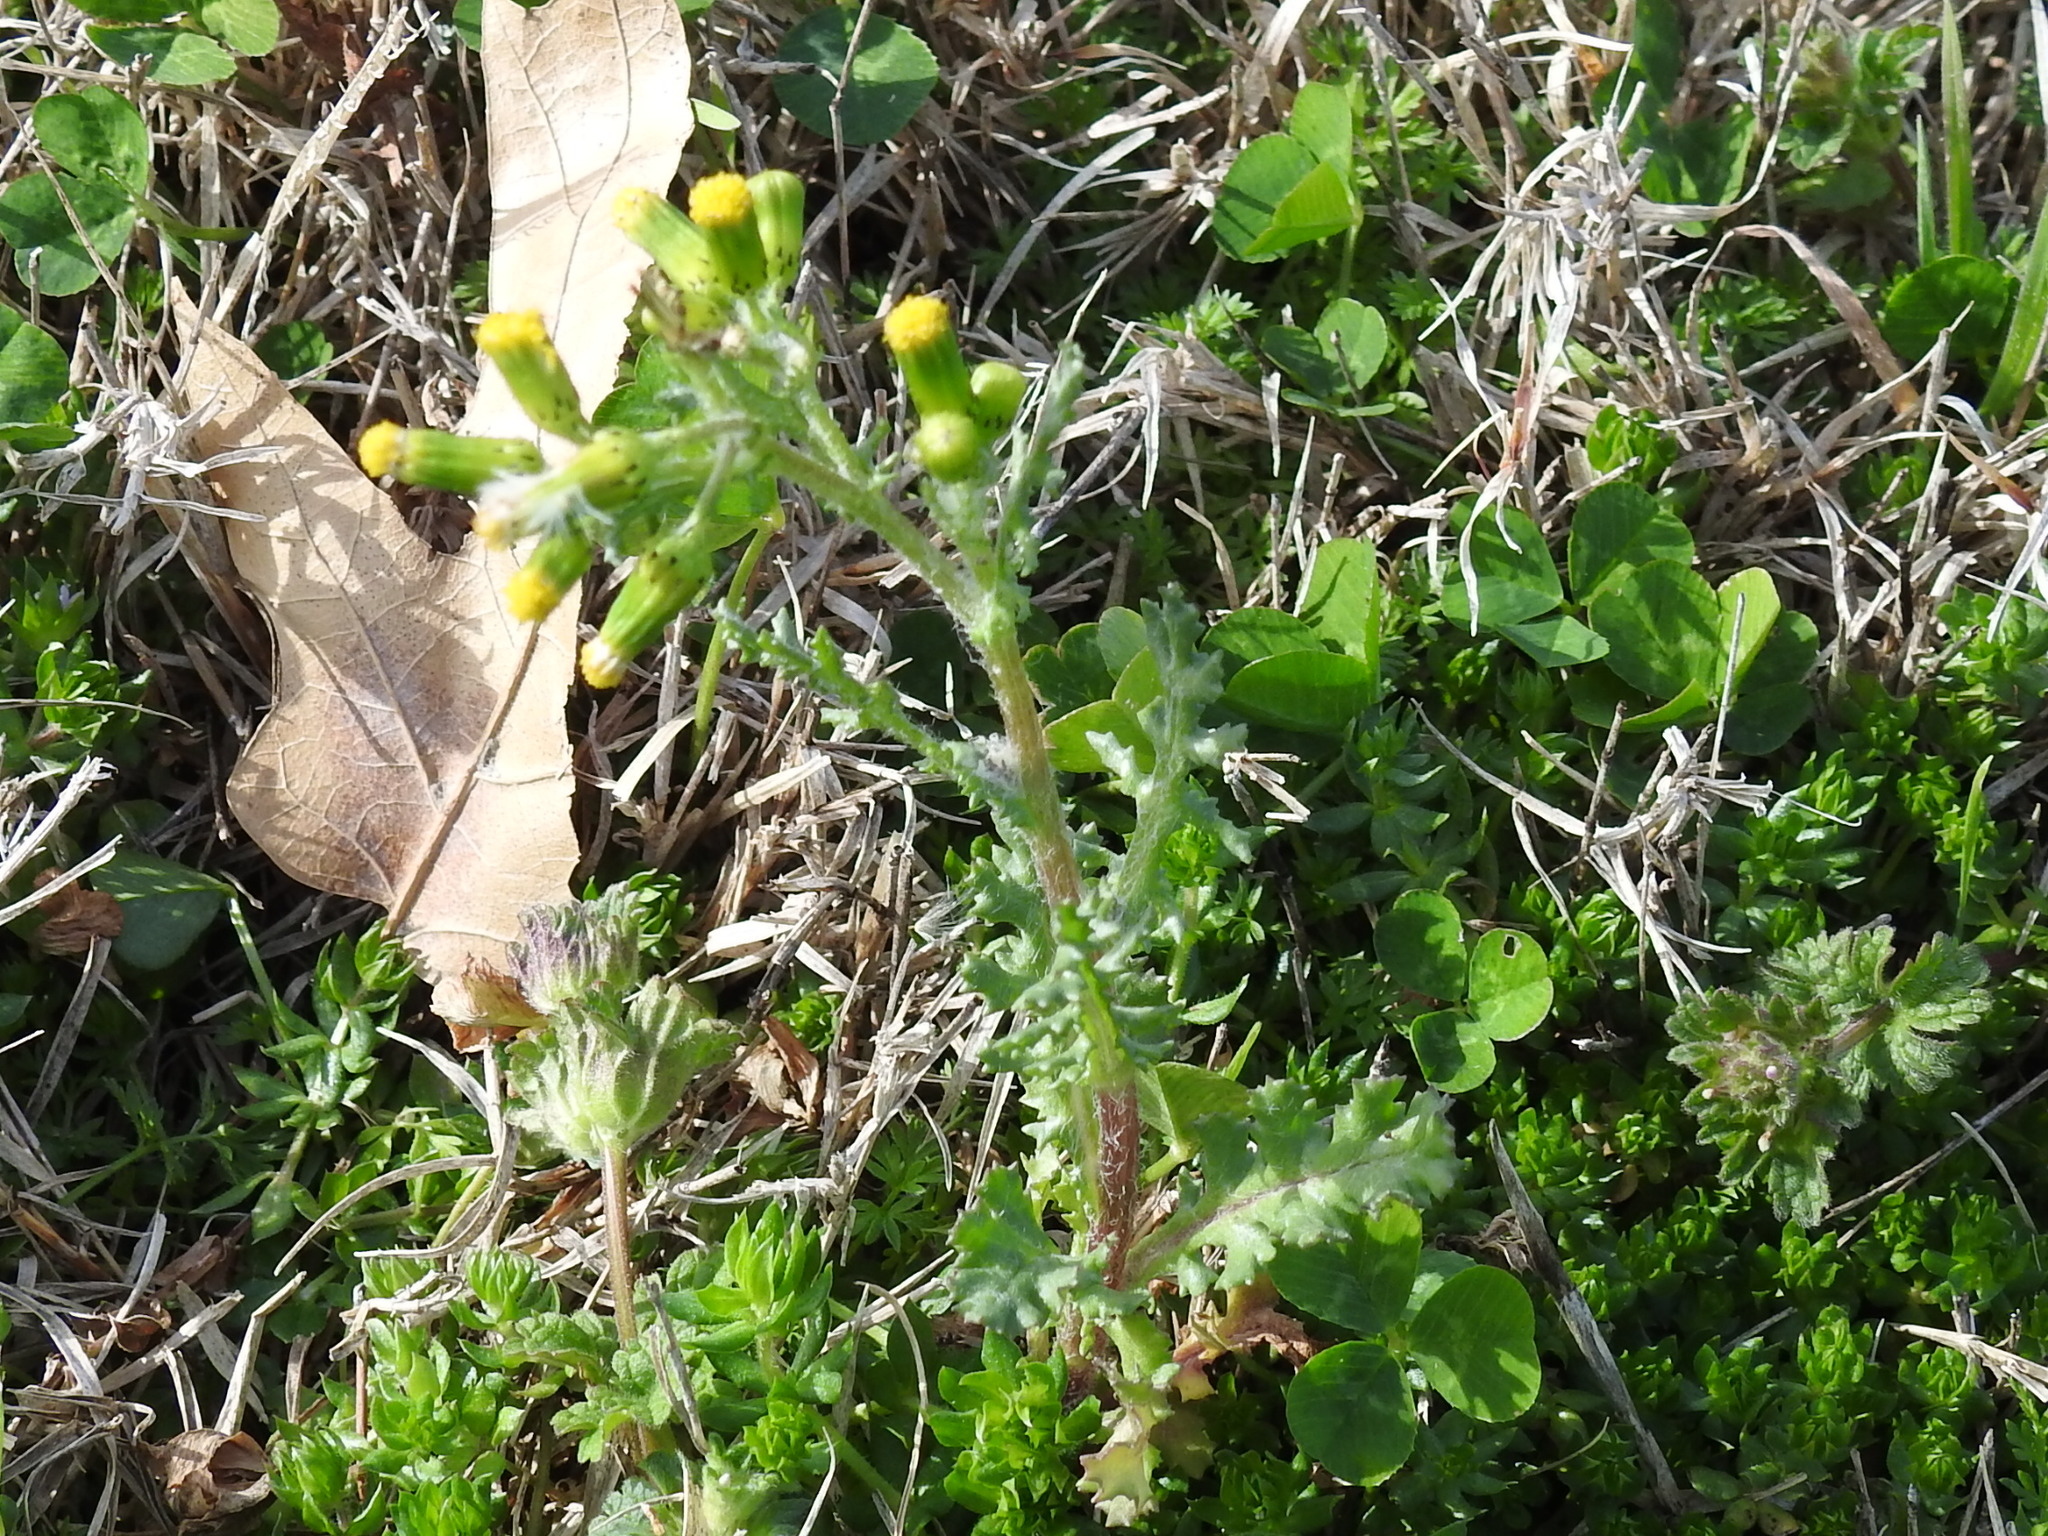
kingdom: Plantae
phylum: Tracheophyta
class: Magnoliopsida
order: Asterales
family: Asteraceae
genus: Senecio
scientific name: Senecio vulgaris
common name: Old-man-in-the-spring
